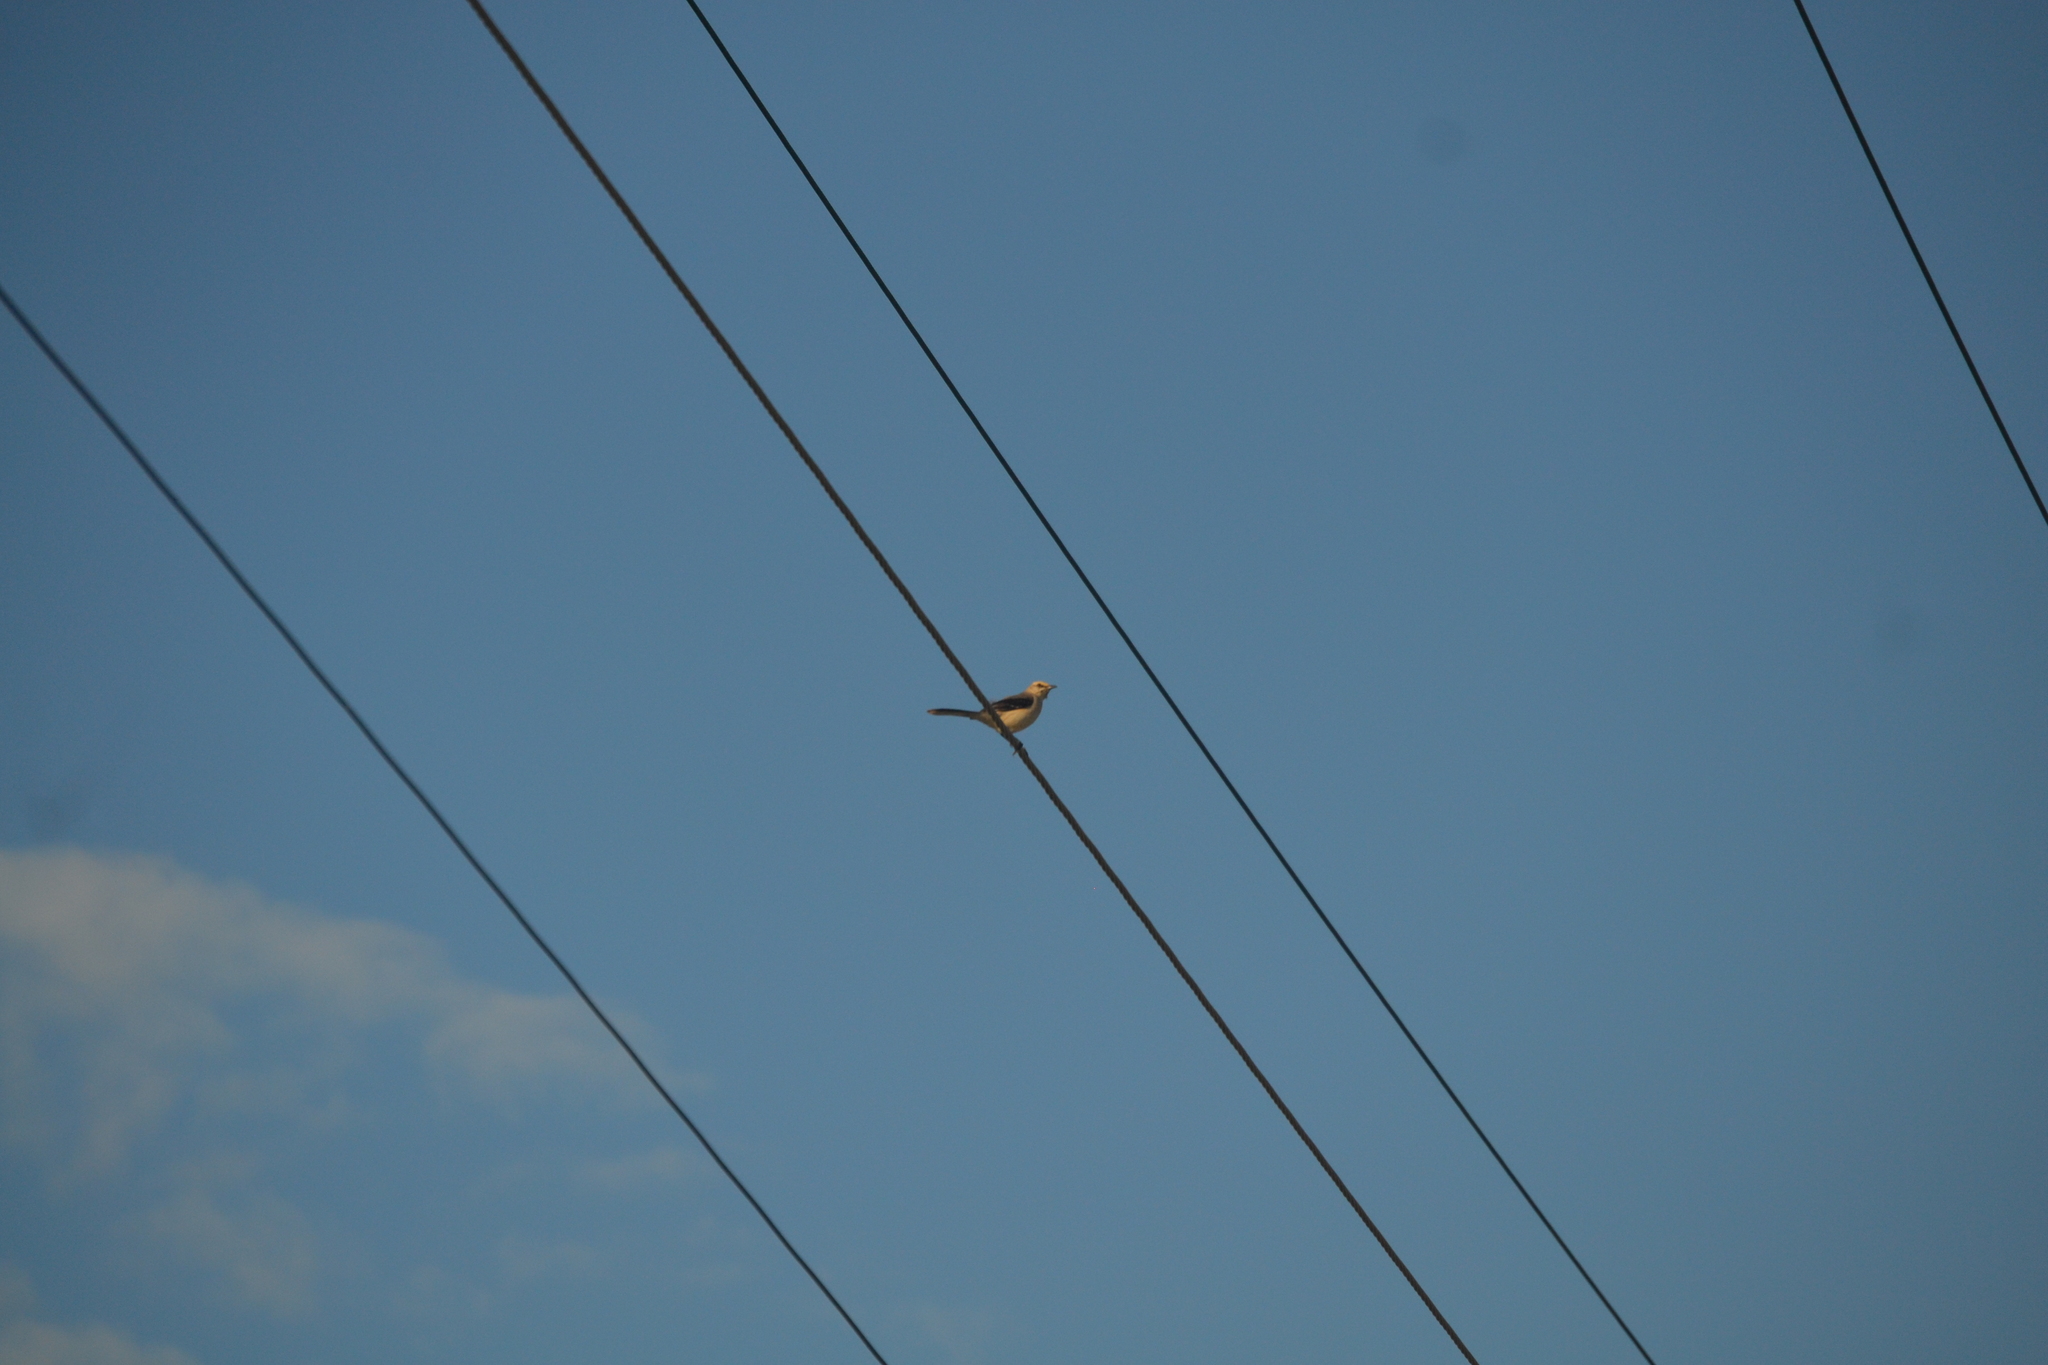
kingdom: Animalia
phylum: Chordata
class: Aves
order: Passeriformes
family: Mimidae
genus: Mimus
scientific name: Mimus gilvus
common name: Tropical mockingbird
